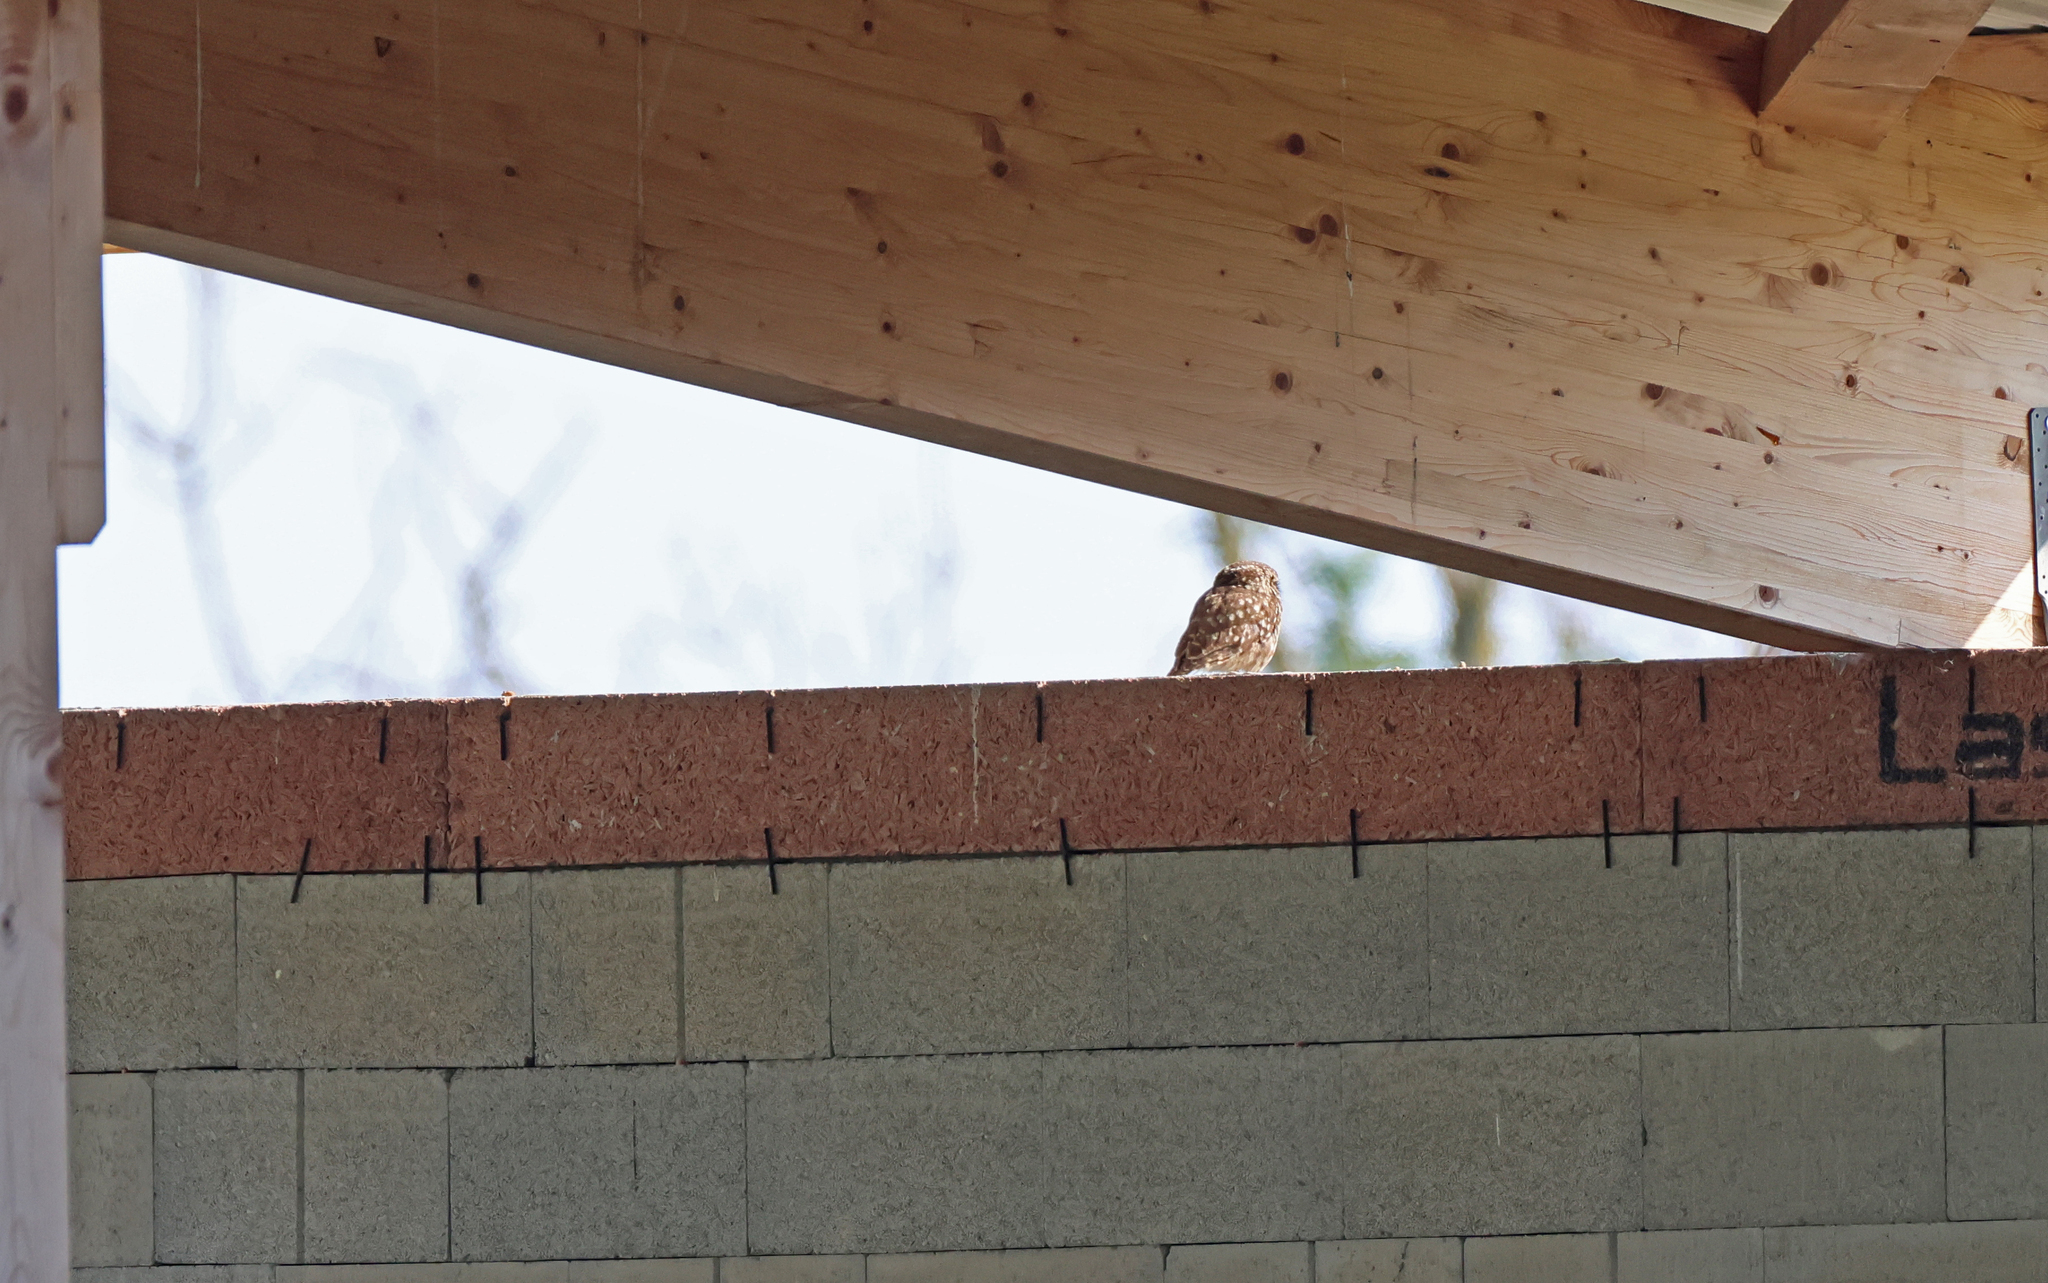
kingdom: Animalia
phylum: Chordata
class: Aves
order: Strigiformes
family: Strigidae
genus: Athene
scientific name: Athene noctua
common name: Little owl
